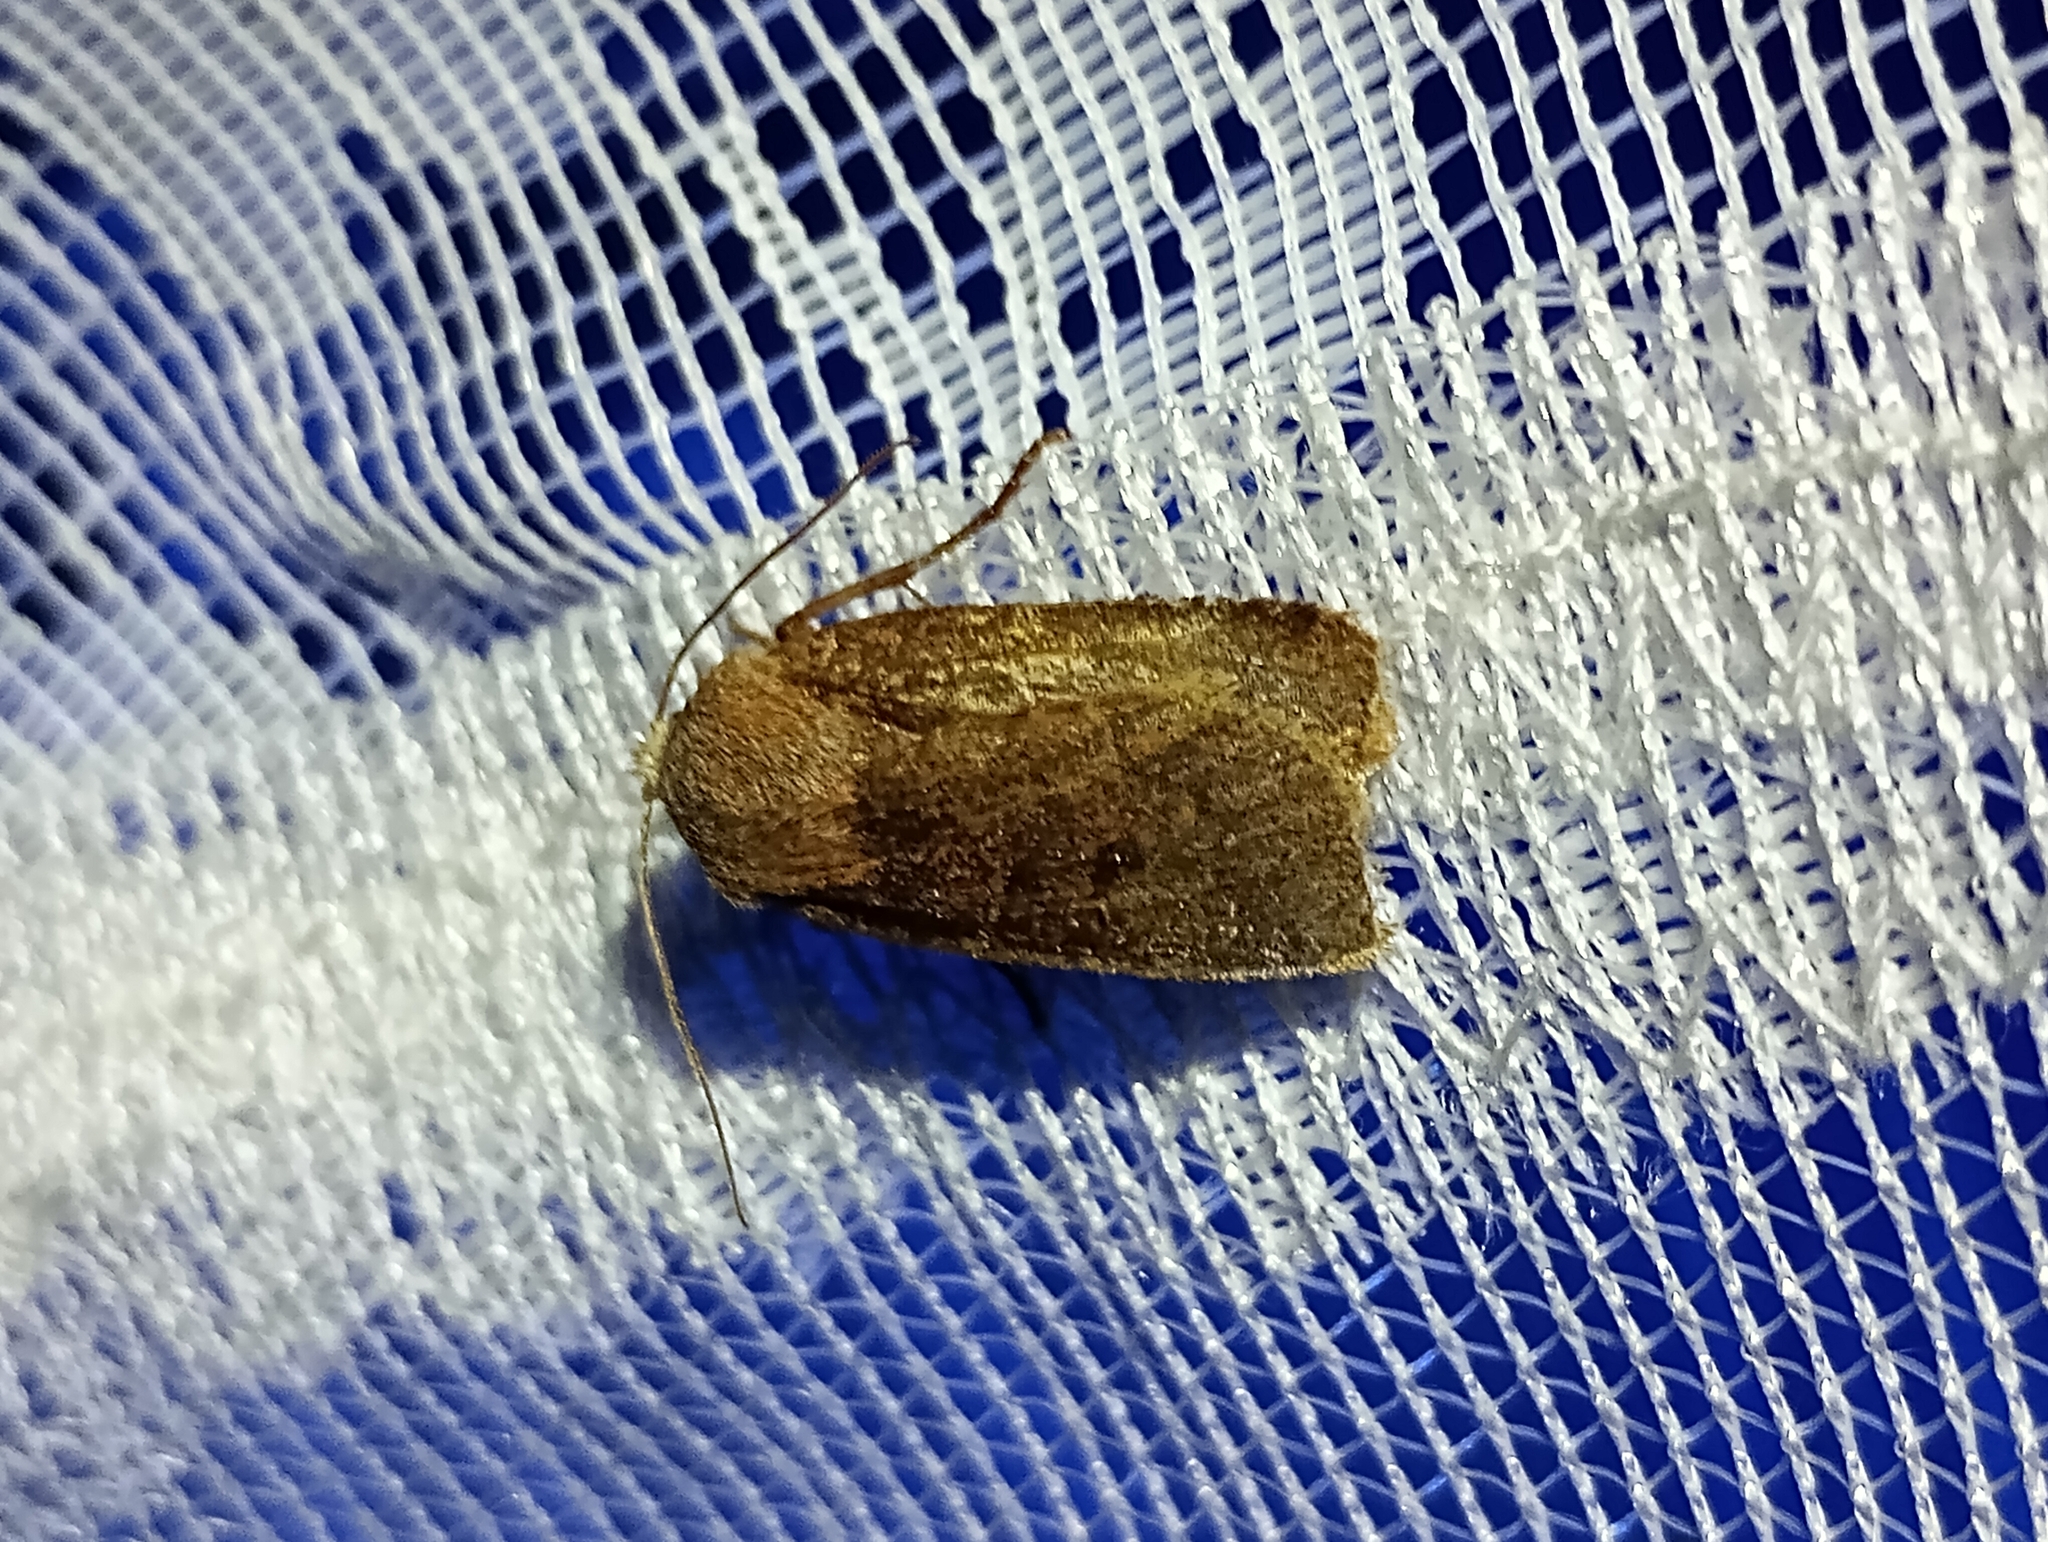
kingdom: Animalia
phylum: Arthropoda
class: Insecta
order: Lepidoptera
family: Noctuidae
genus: Conistra
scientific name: Conistra vaccinii
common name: Chestnut
